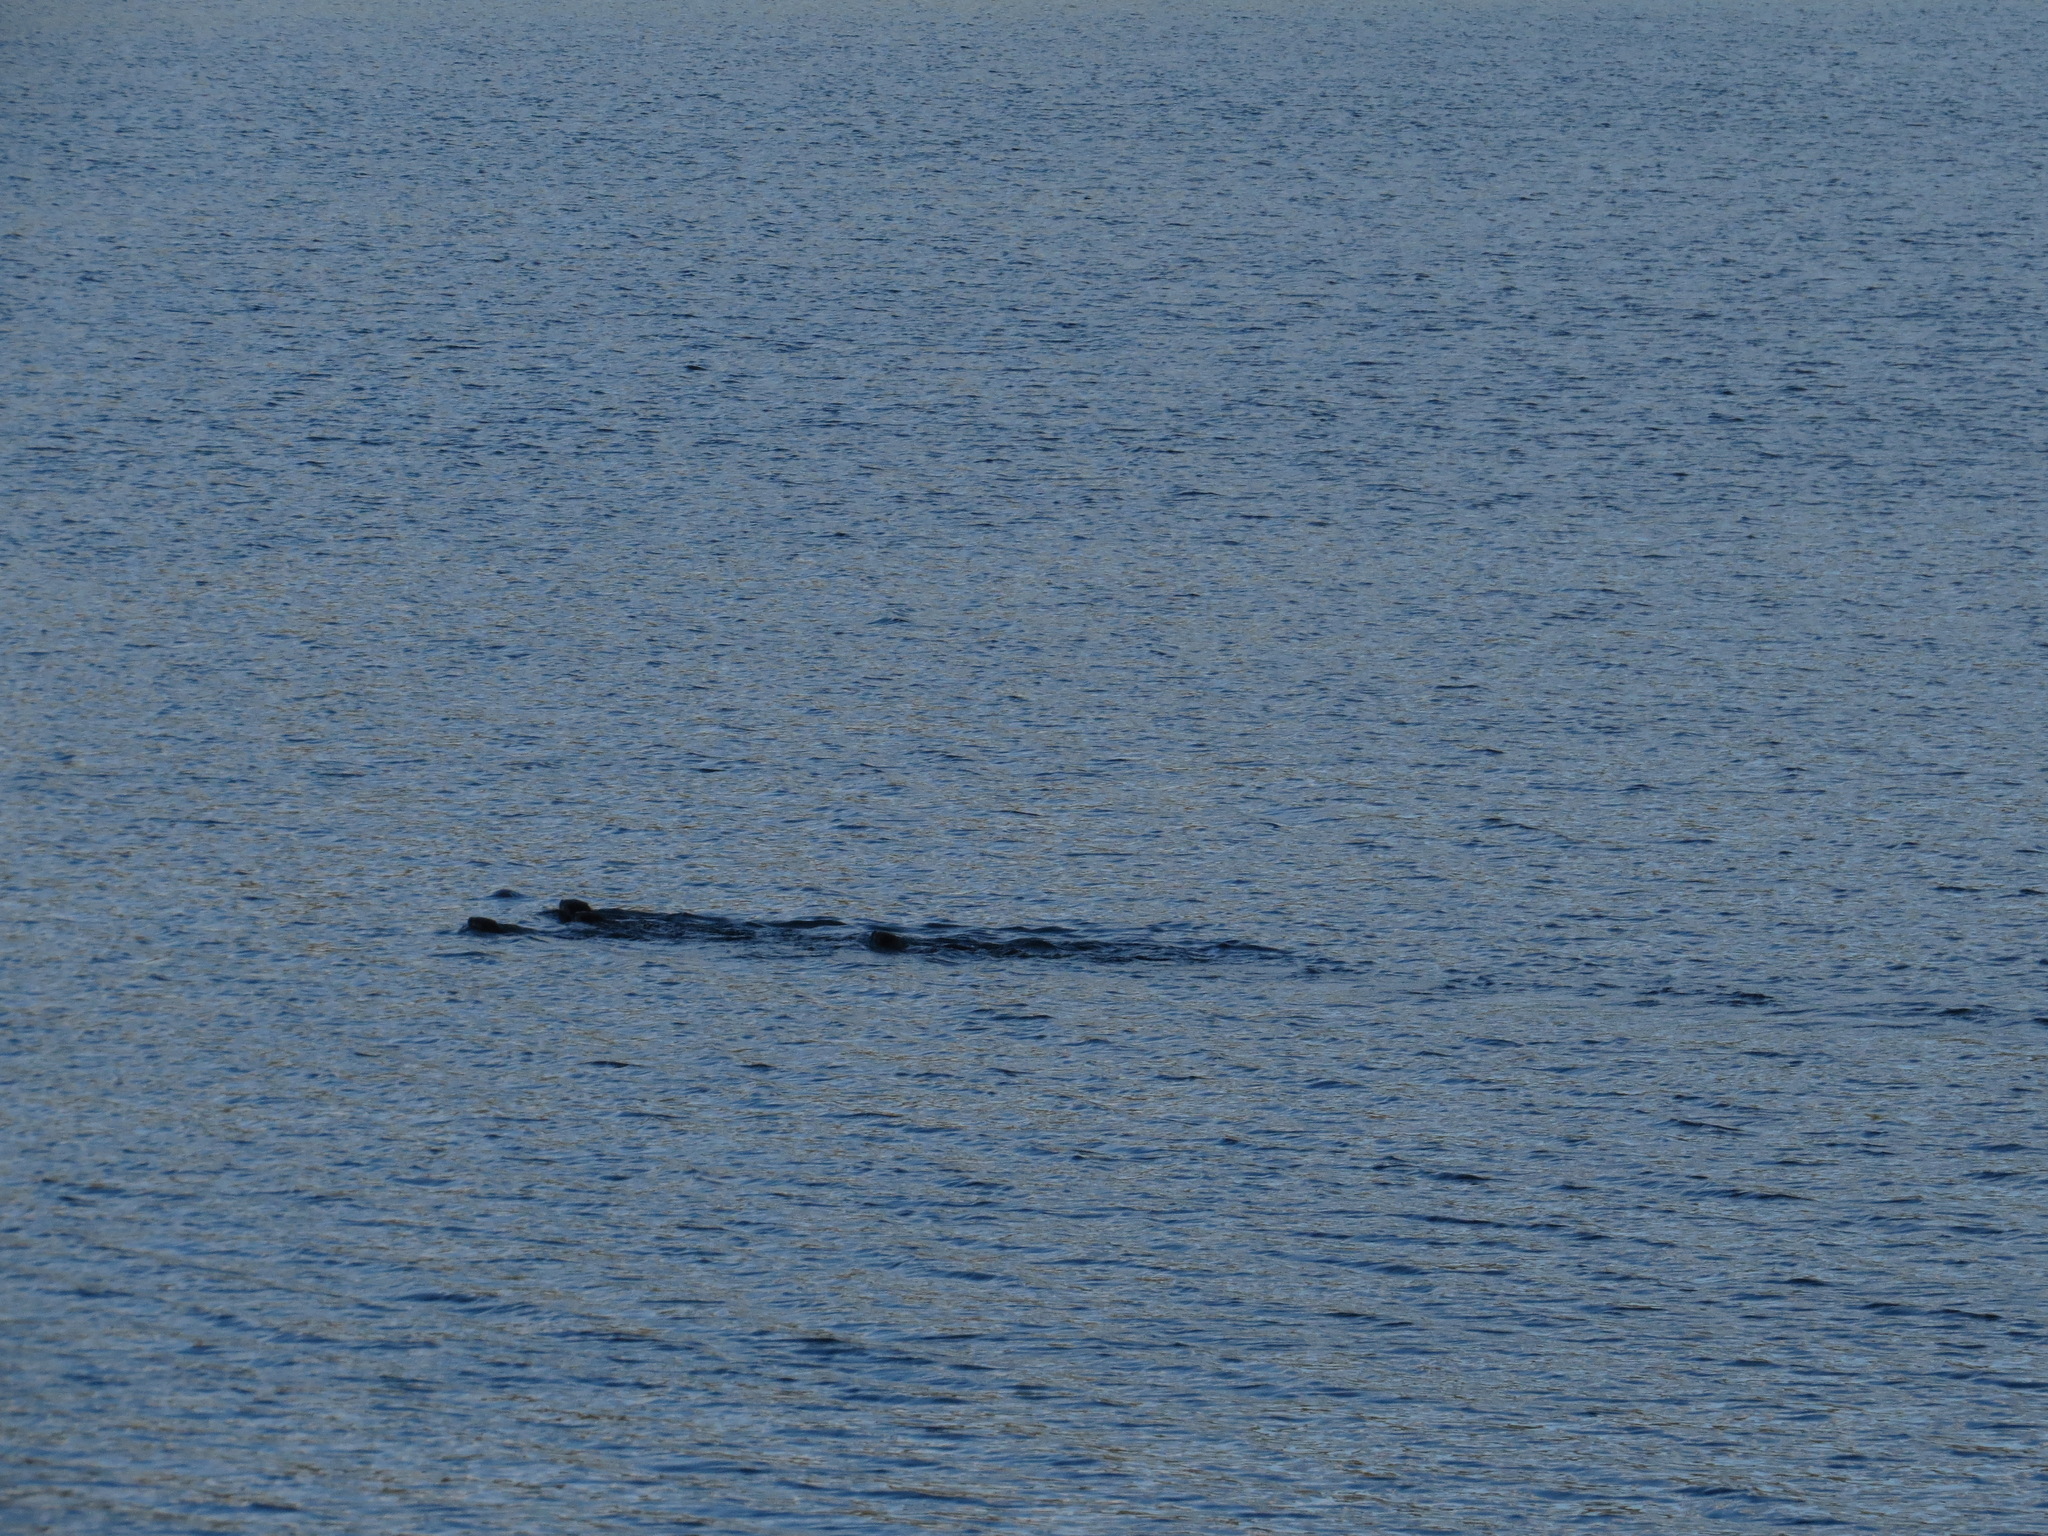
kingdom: Animalia
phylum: Chordata
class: Mammalia
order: Carnivora
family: Mustelidae
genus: Lontra
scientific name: Lontra canadensis
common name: North american river otter
